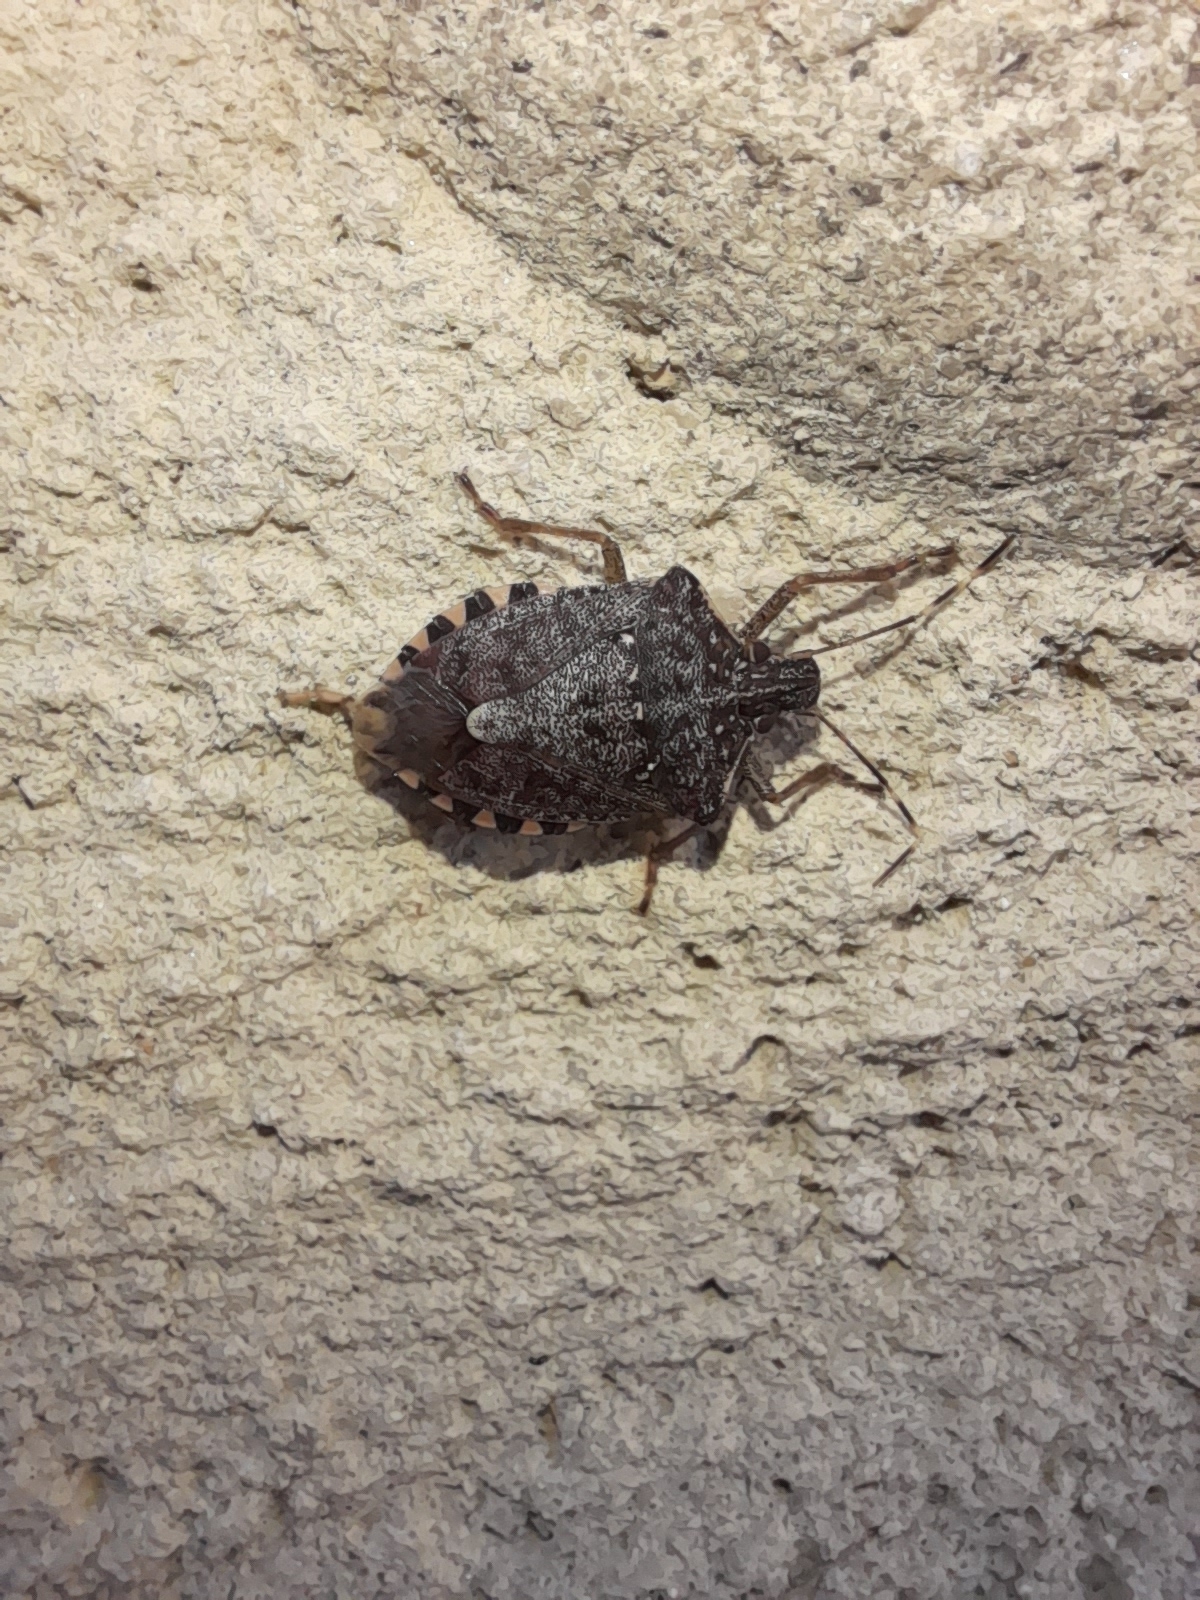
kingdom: Animalia
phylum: Arthropoda
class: Insecta
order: Hemiptera
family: Pentatomidae
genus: Halyomorpha
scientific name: Halyomorpha halys
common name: Brown marmorated stink bug
